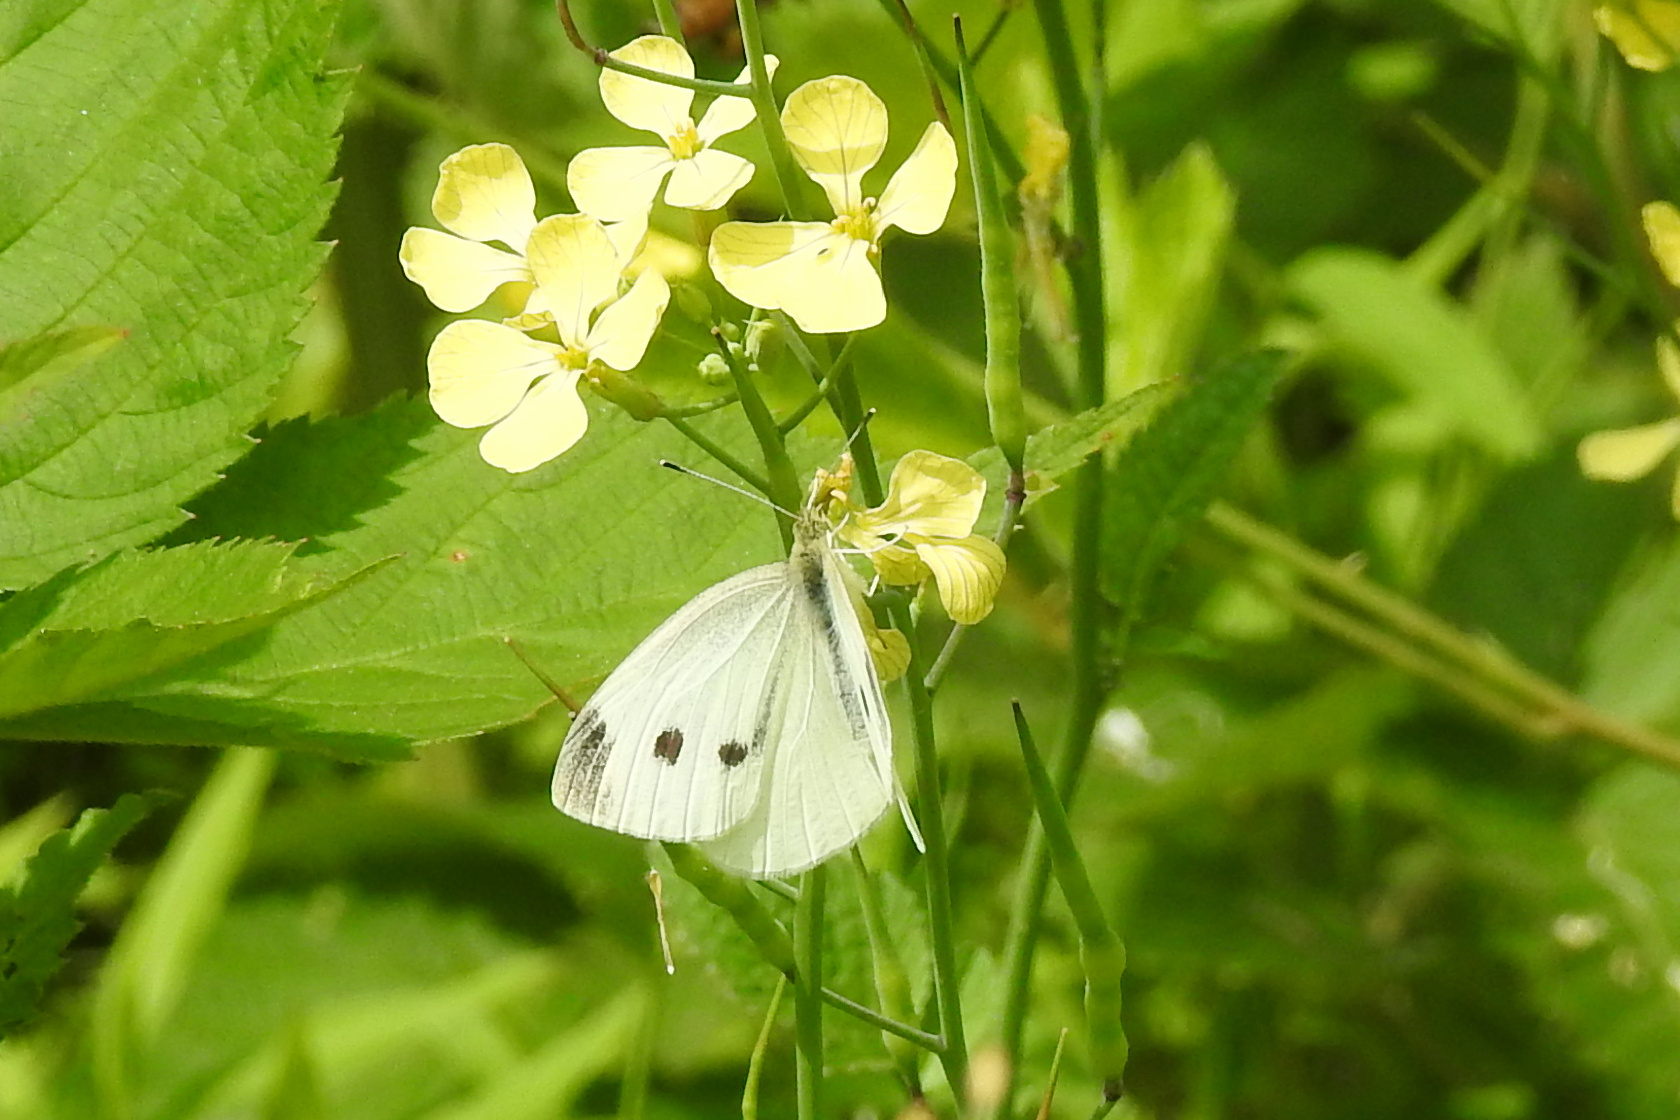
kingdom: Animalia
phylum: Arthropoda
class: Insecta
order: Lepidoptera
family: Pieridae
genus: Pieris
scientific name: Pieris rapae
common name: Small white
